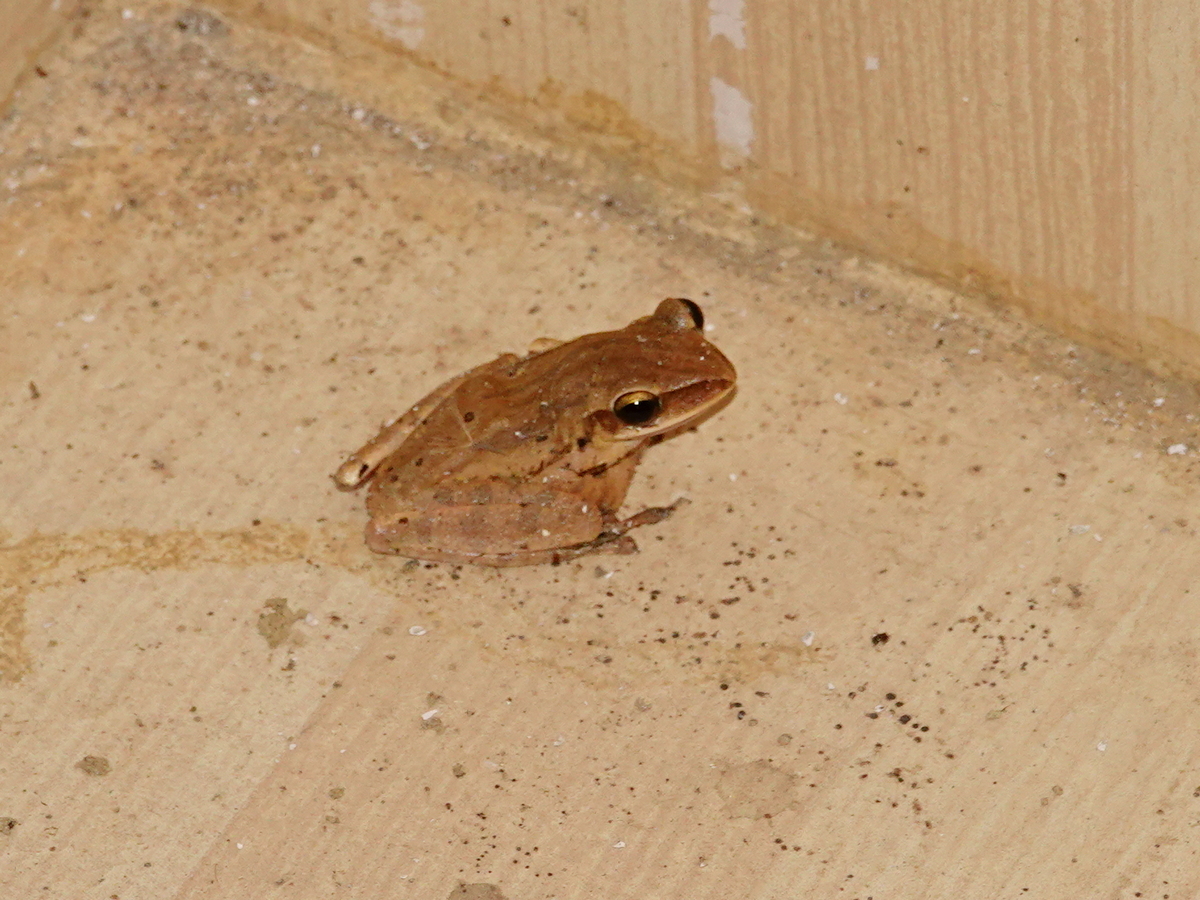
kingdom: Animalia
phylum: Chordata
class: Amphibia
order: Anura
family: Rhacophoridae
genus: Polypedates
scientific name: Polypedates leucomystax
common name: Common tree frog/four-lined tree frog
